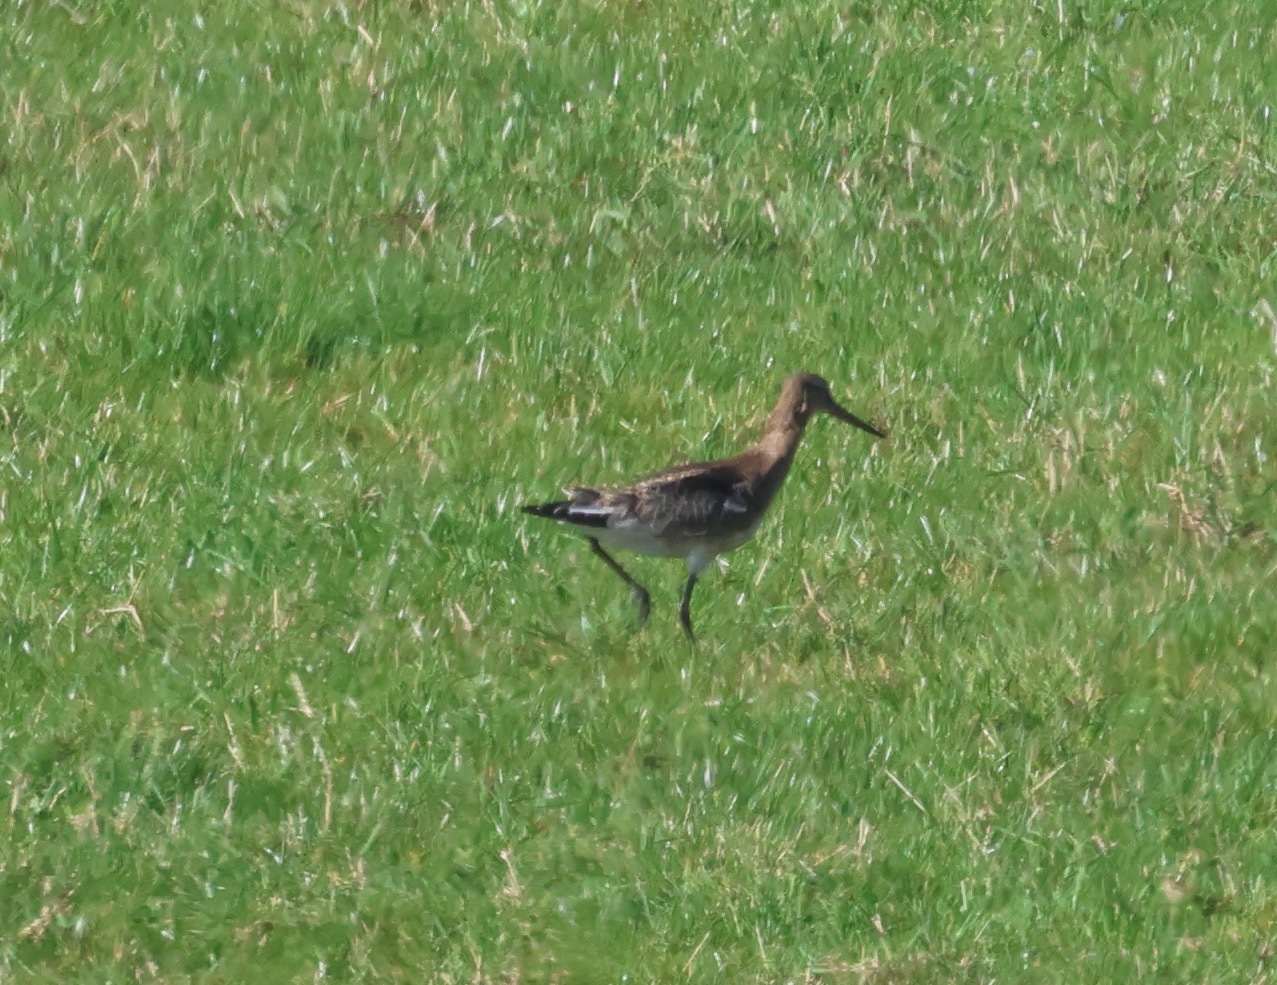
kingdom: Animalia
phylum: Chordata
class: Aves
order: Charadriiformes
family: Scolopacidae
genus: Limosa
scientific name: Limosa limosa
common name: Black-tailed godwit
